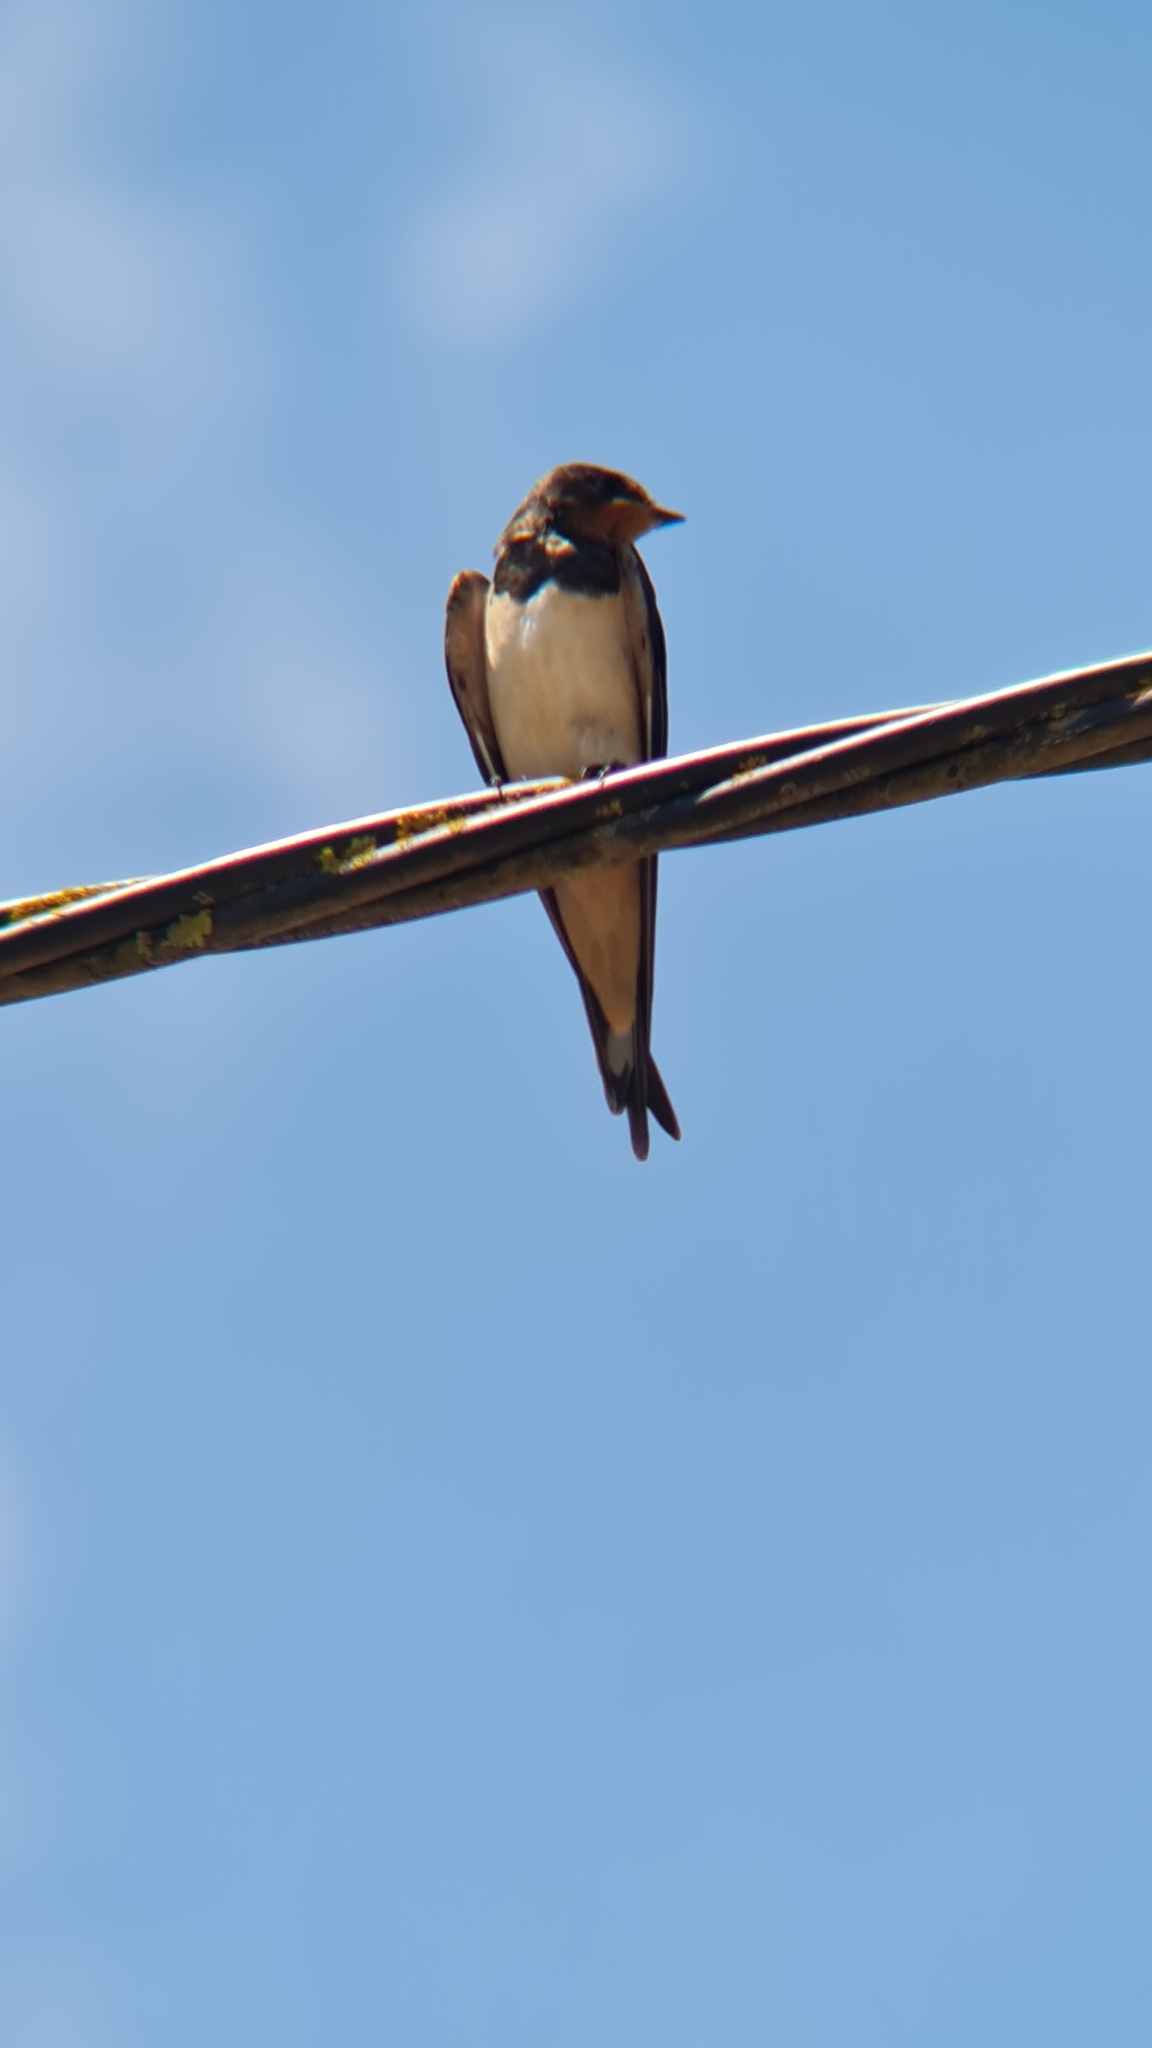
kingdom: Animalia
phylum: Chordata
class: Aves
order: Passeriformes
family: Hirundinidae
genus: Hirundo
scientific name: Hirundo rustica
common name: Barn swallow
